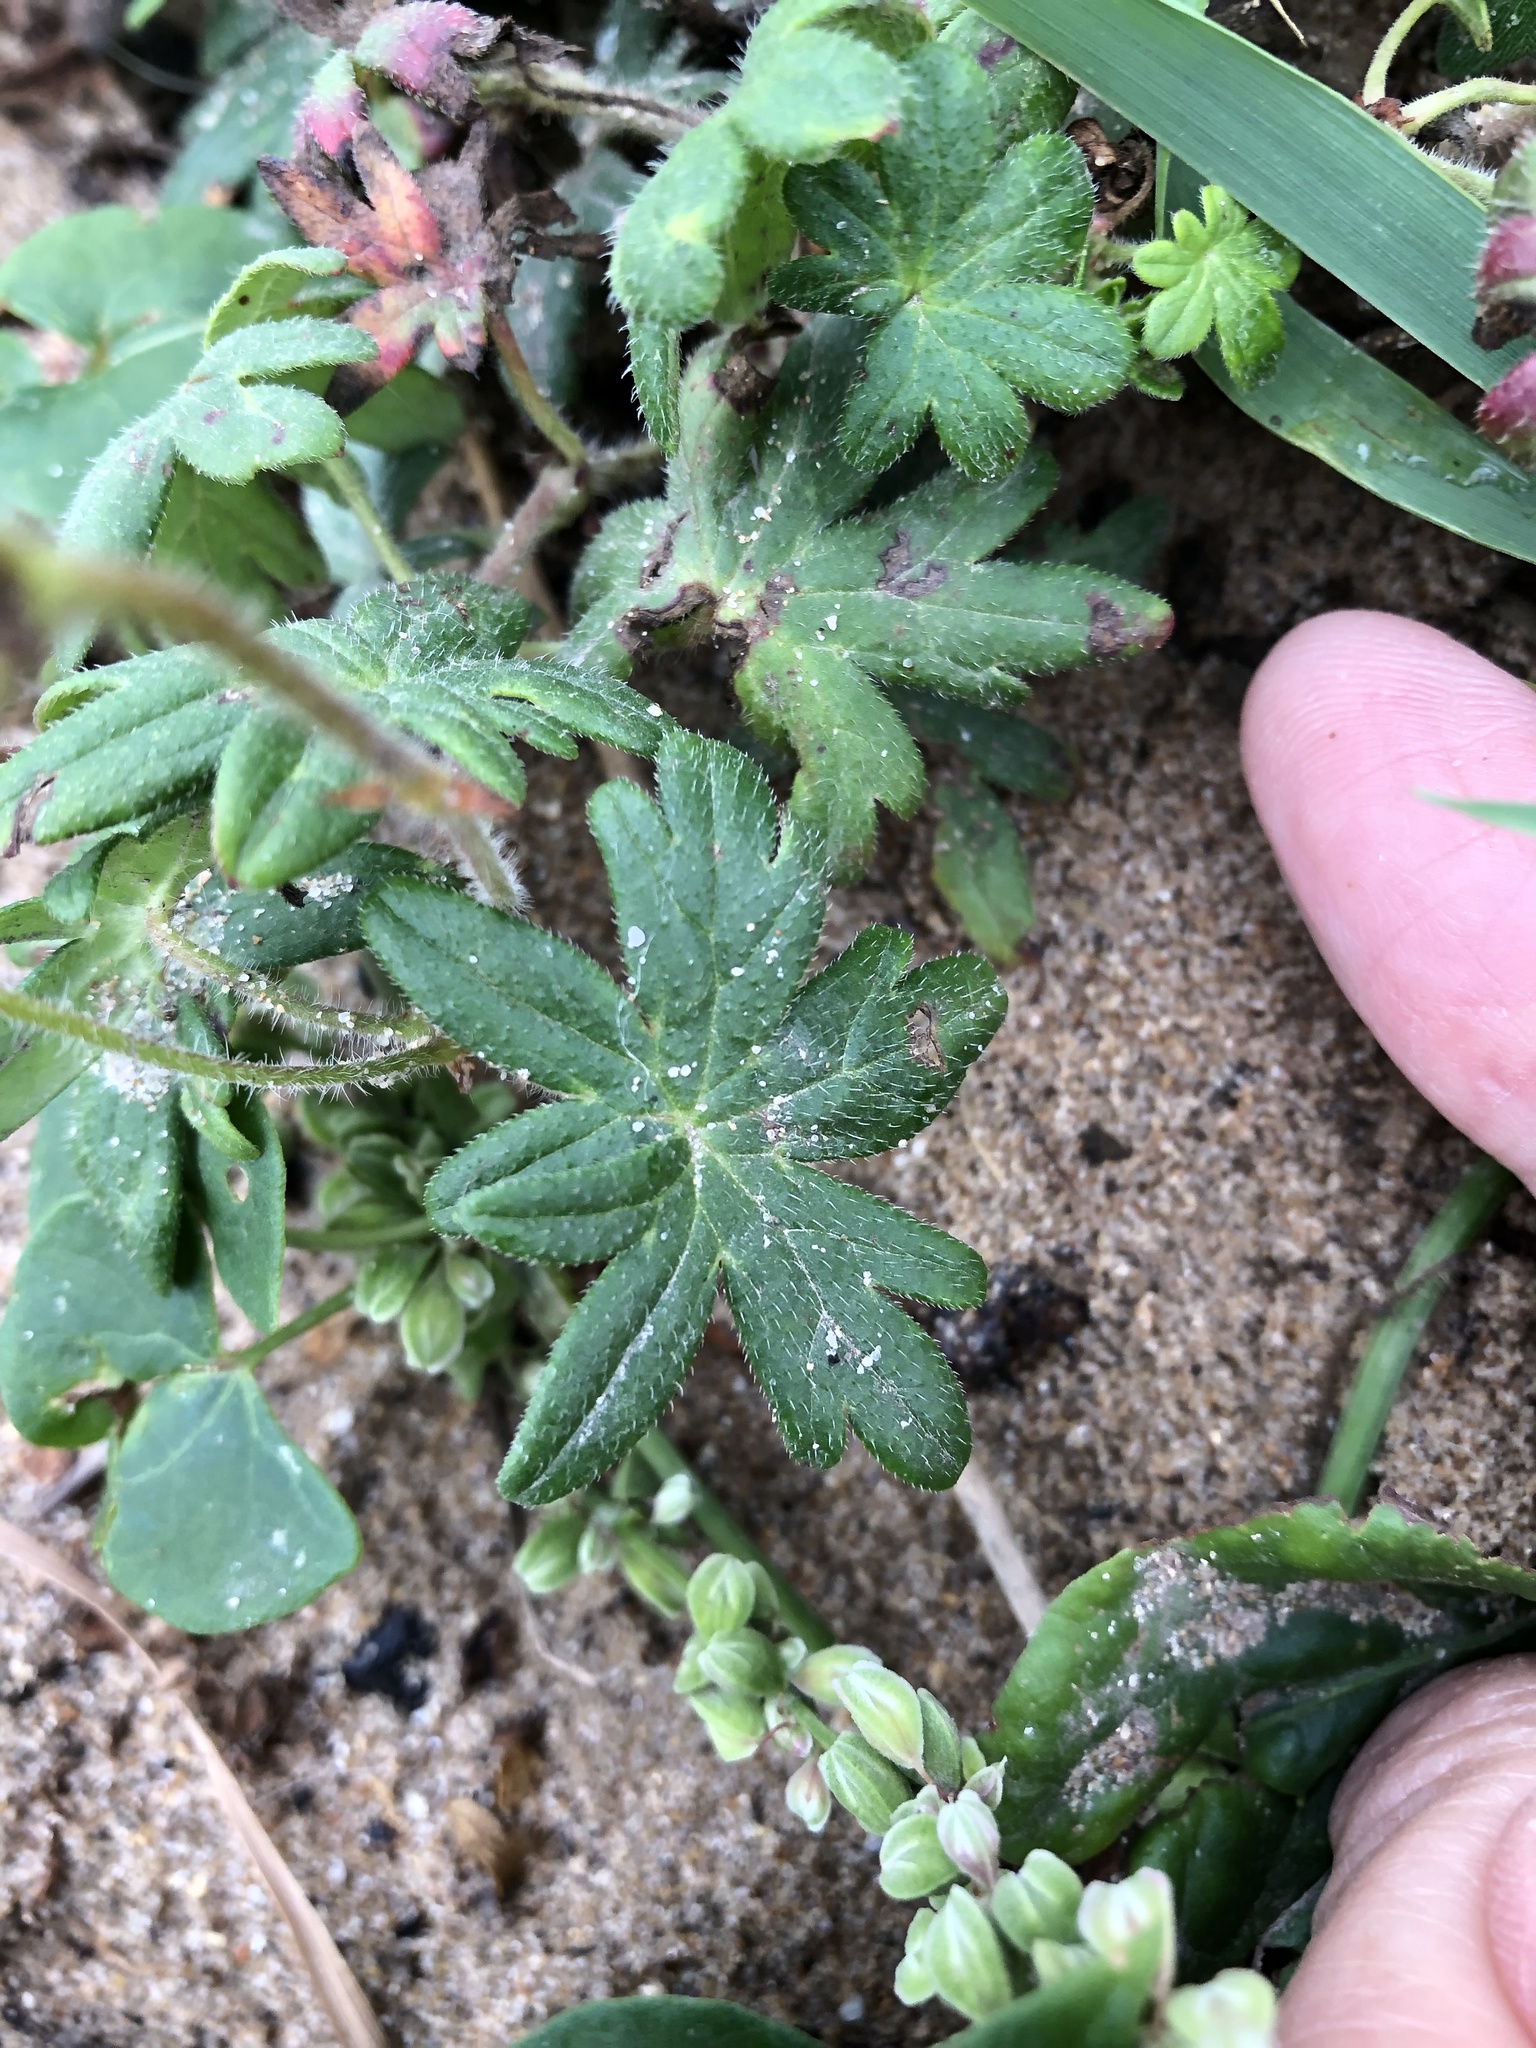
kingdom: Plantae
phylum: Tracheophyta
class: Magnoliopsida
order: Geraniales
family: Geraniaceae
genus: Geranium
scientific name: Geranium sanguineum
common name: Bloody crane's-bill
